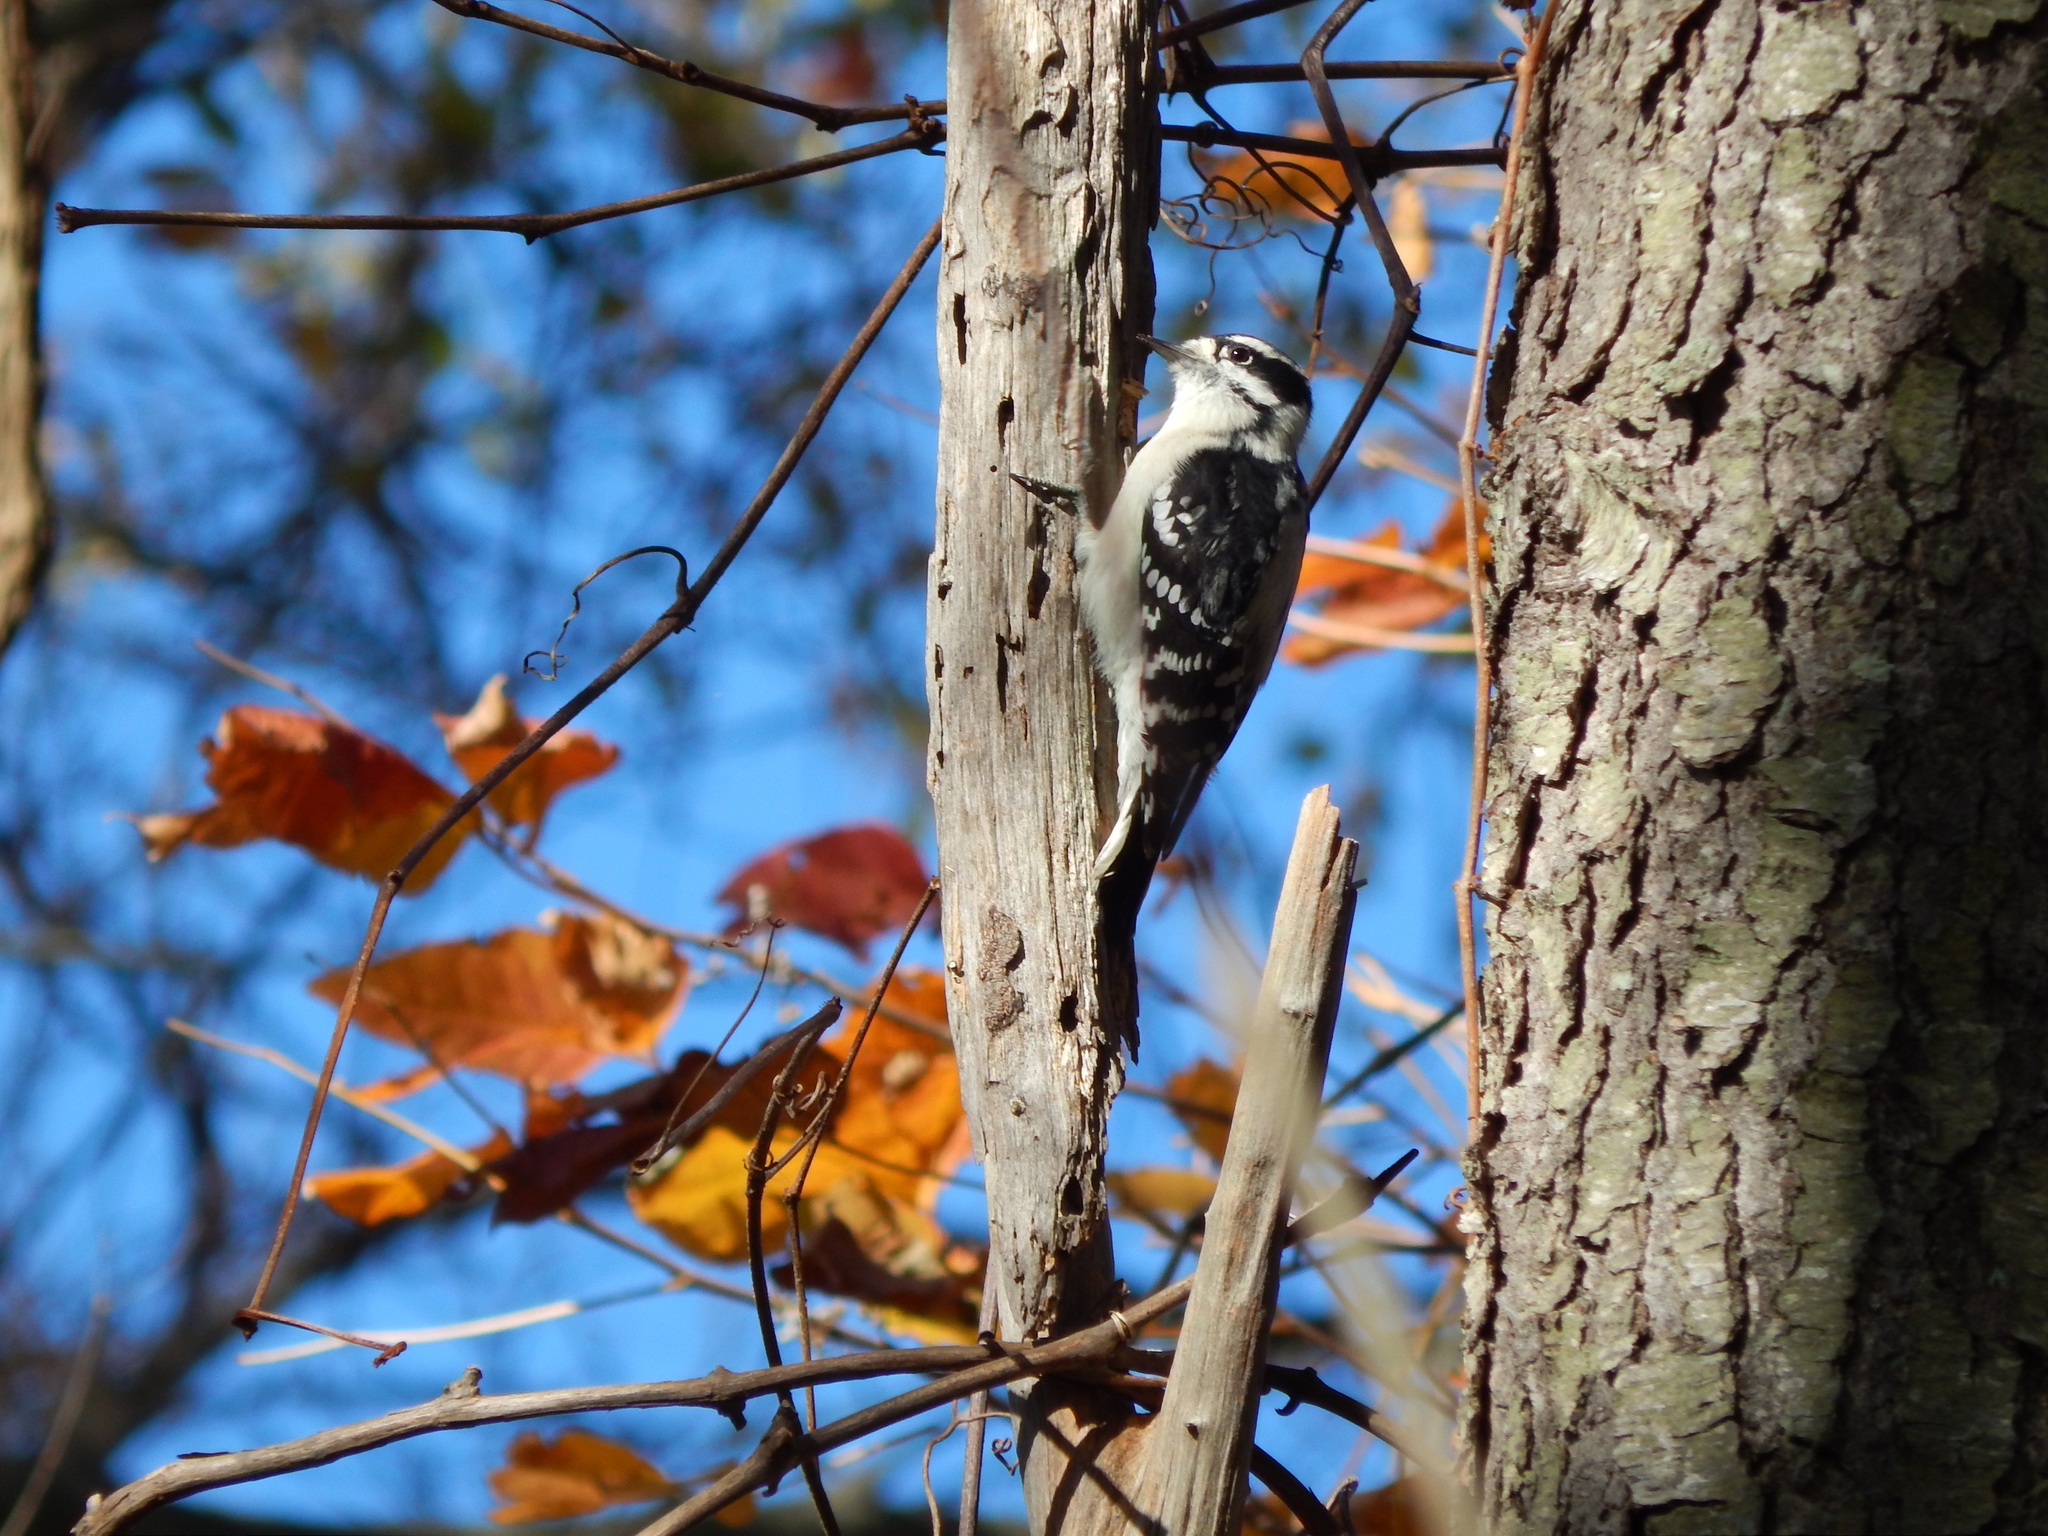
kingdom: Animalia
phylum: Chordata
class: Aves
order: Piciformes
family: Picidae
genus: Dryobates
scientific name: Dryobates pubescens
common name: Downy woodpecker
